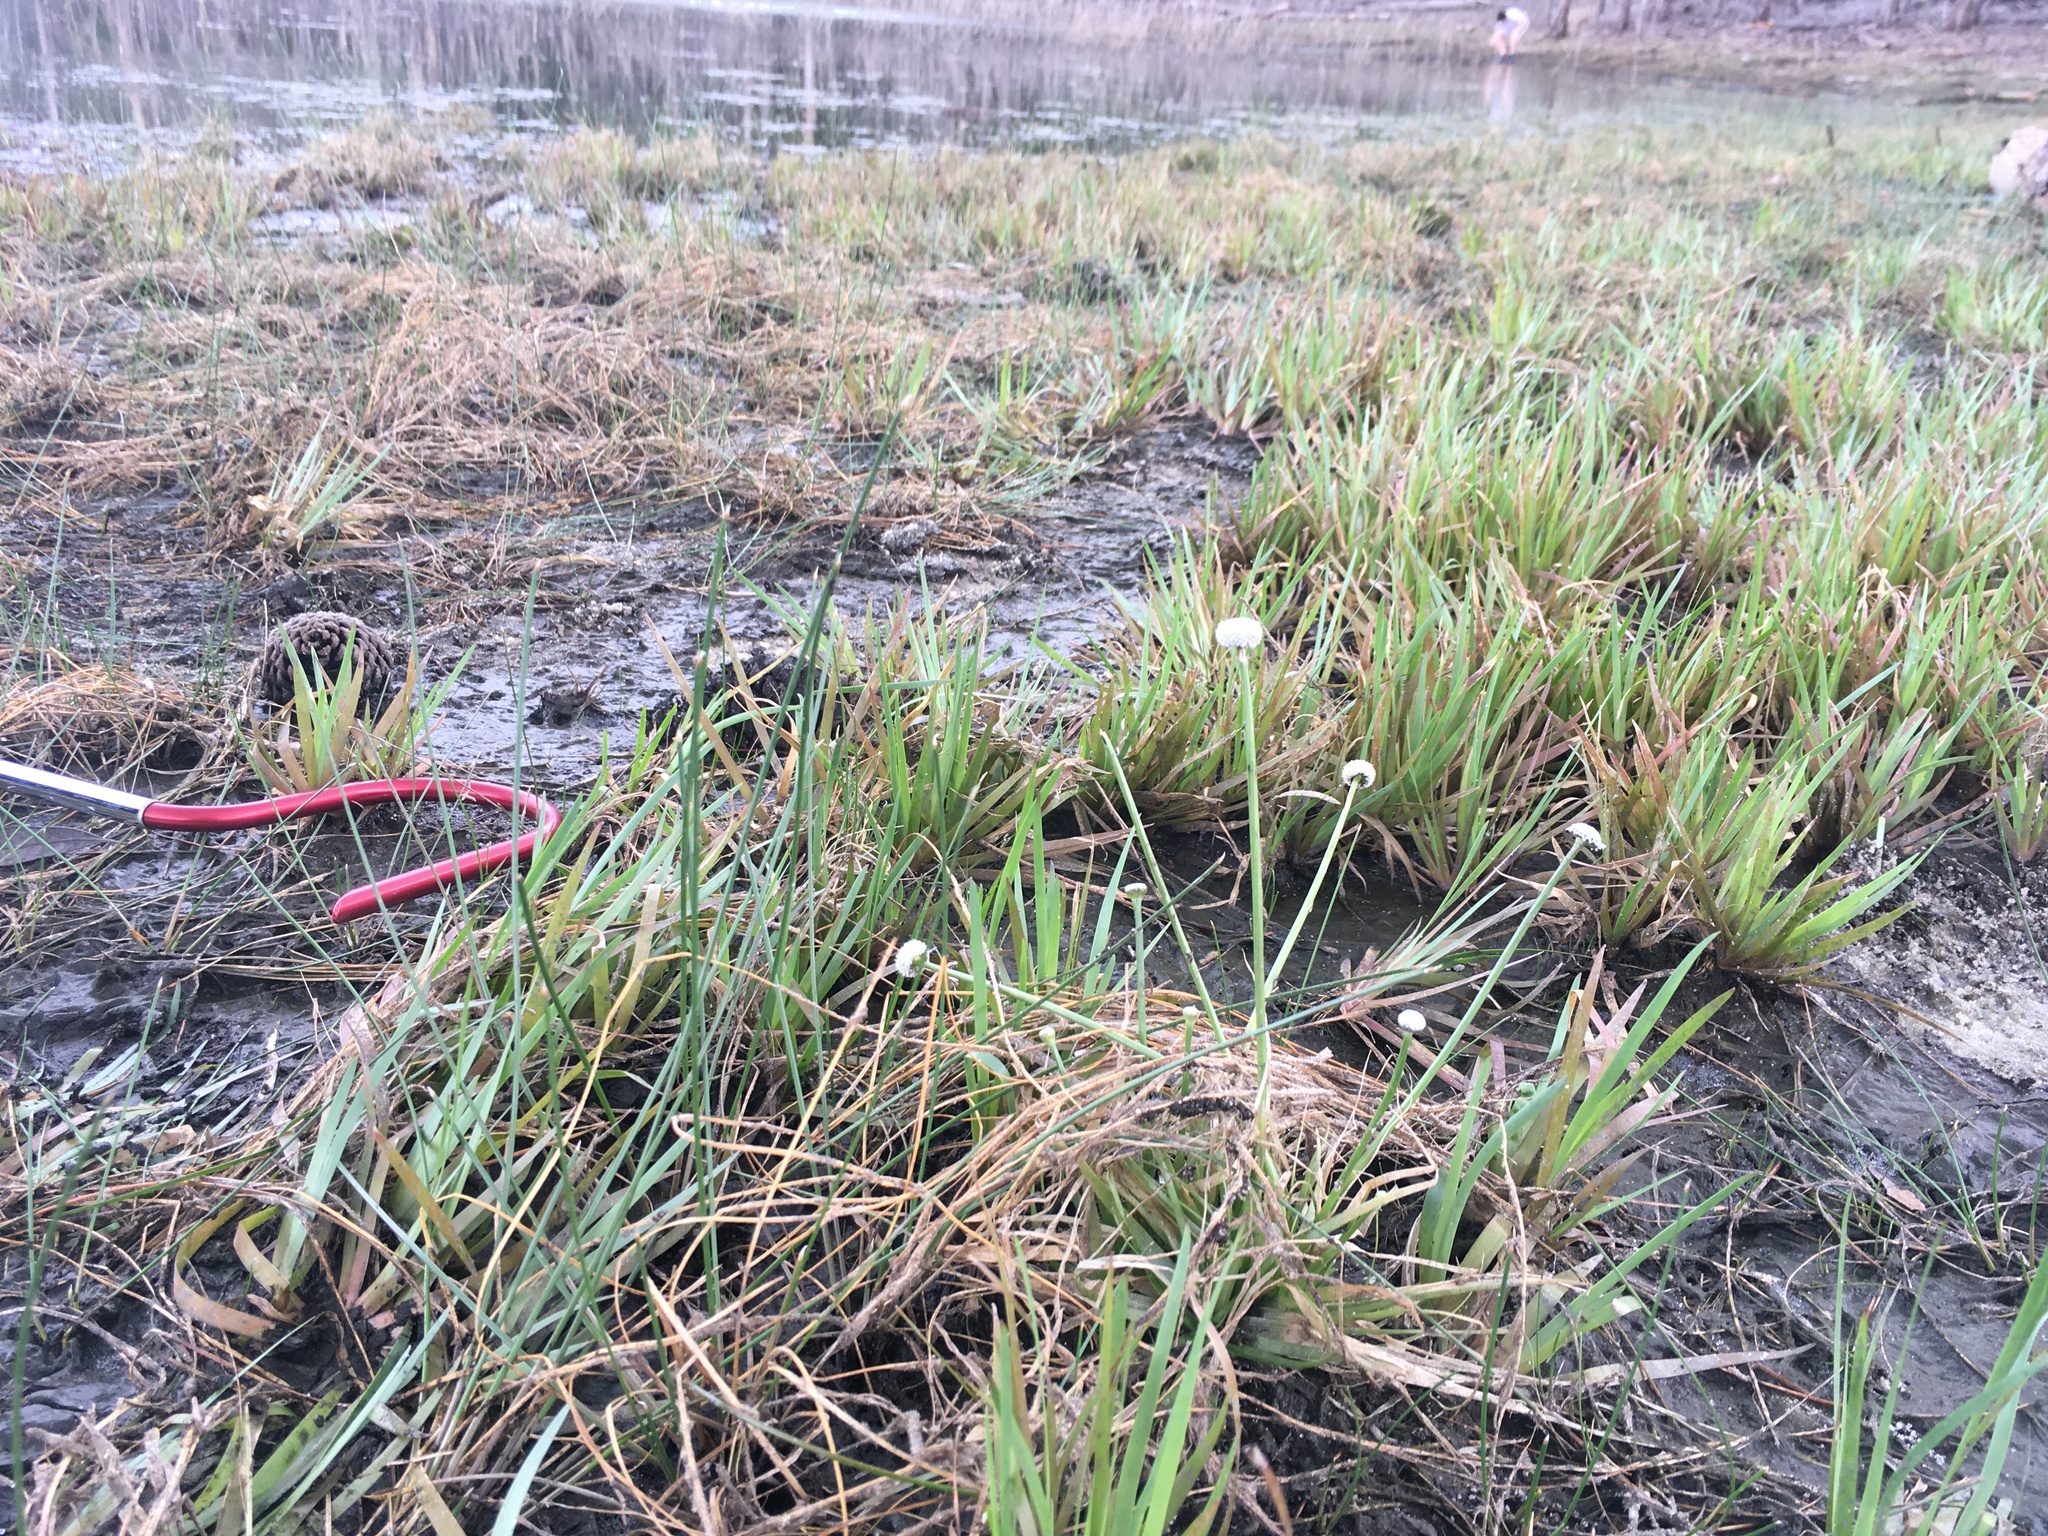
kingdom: Plantae
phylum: Tracheophyta
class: Liliopsida
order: Poales
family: Eriocaulaceae
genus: Eriocaulon
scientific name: Eriocaulon compressum
